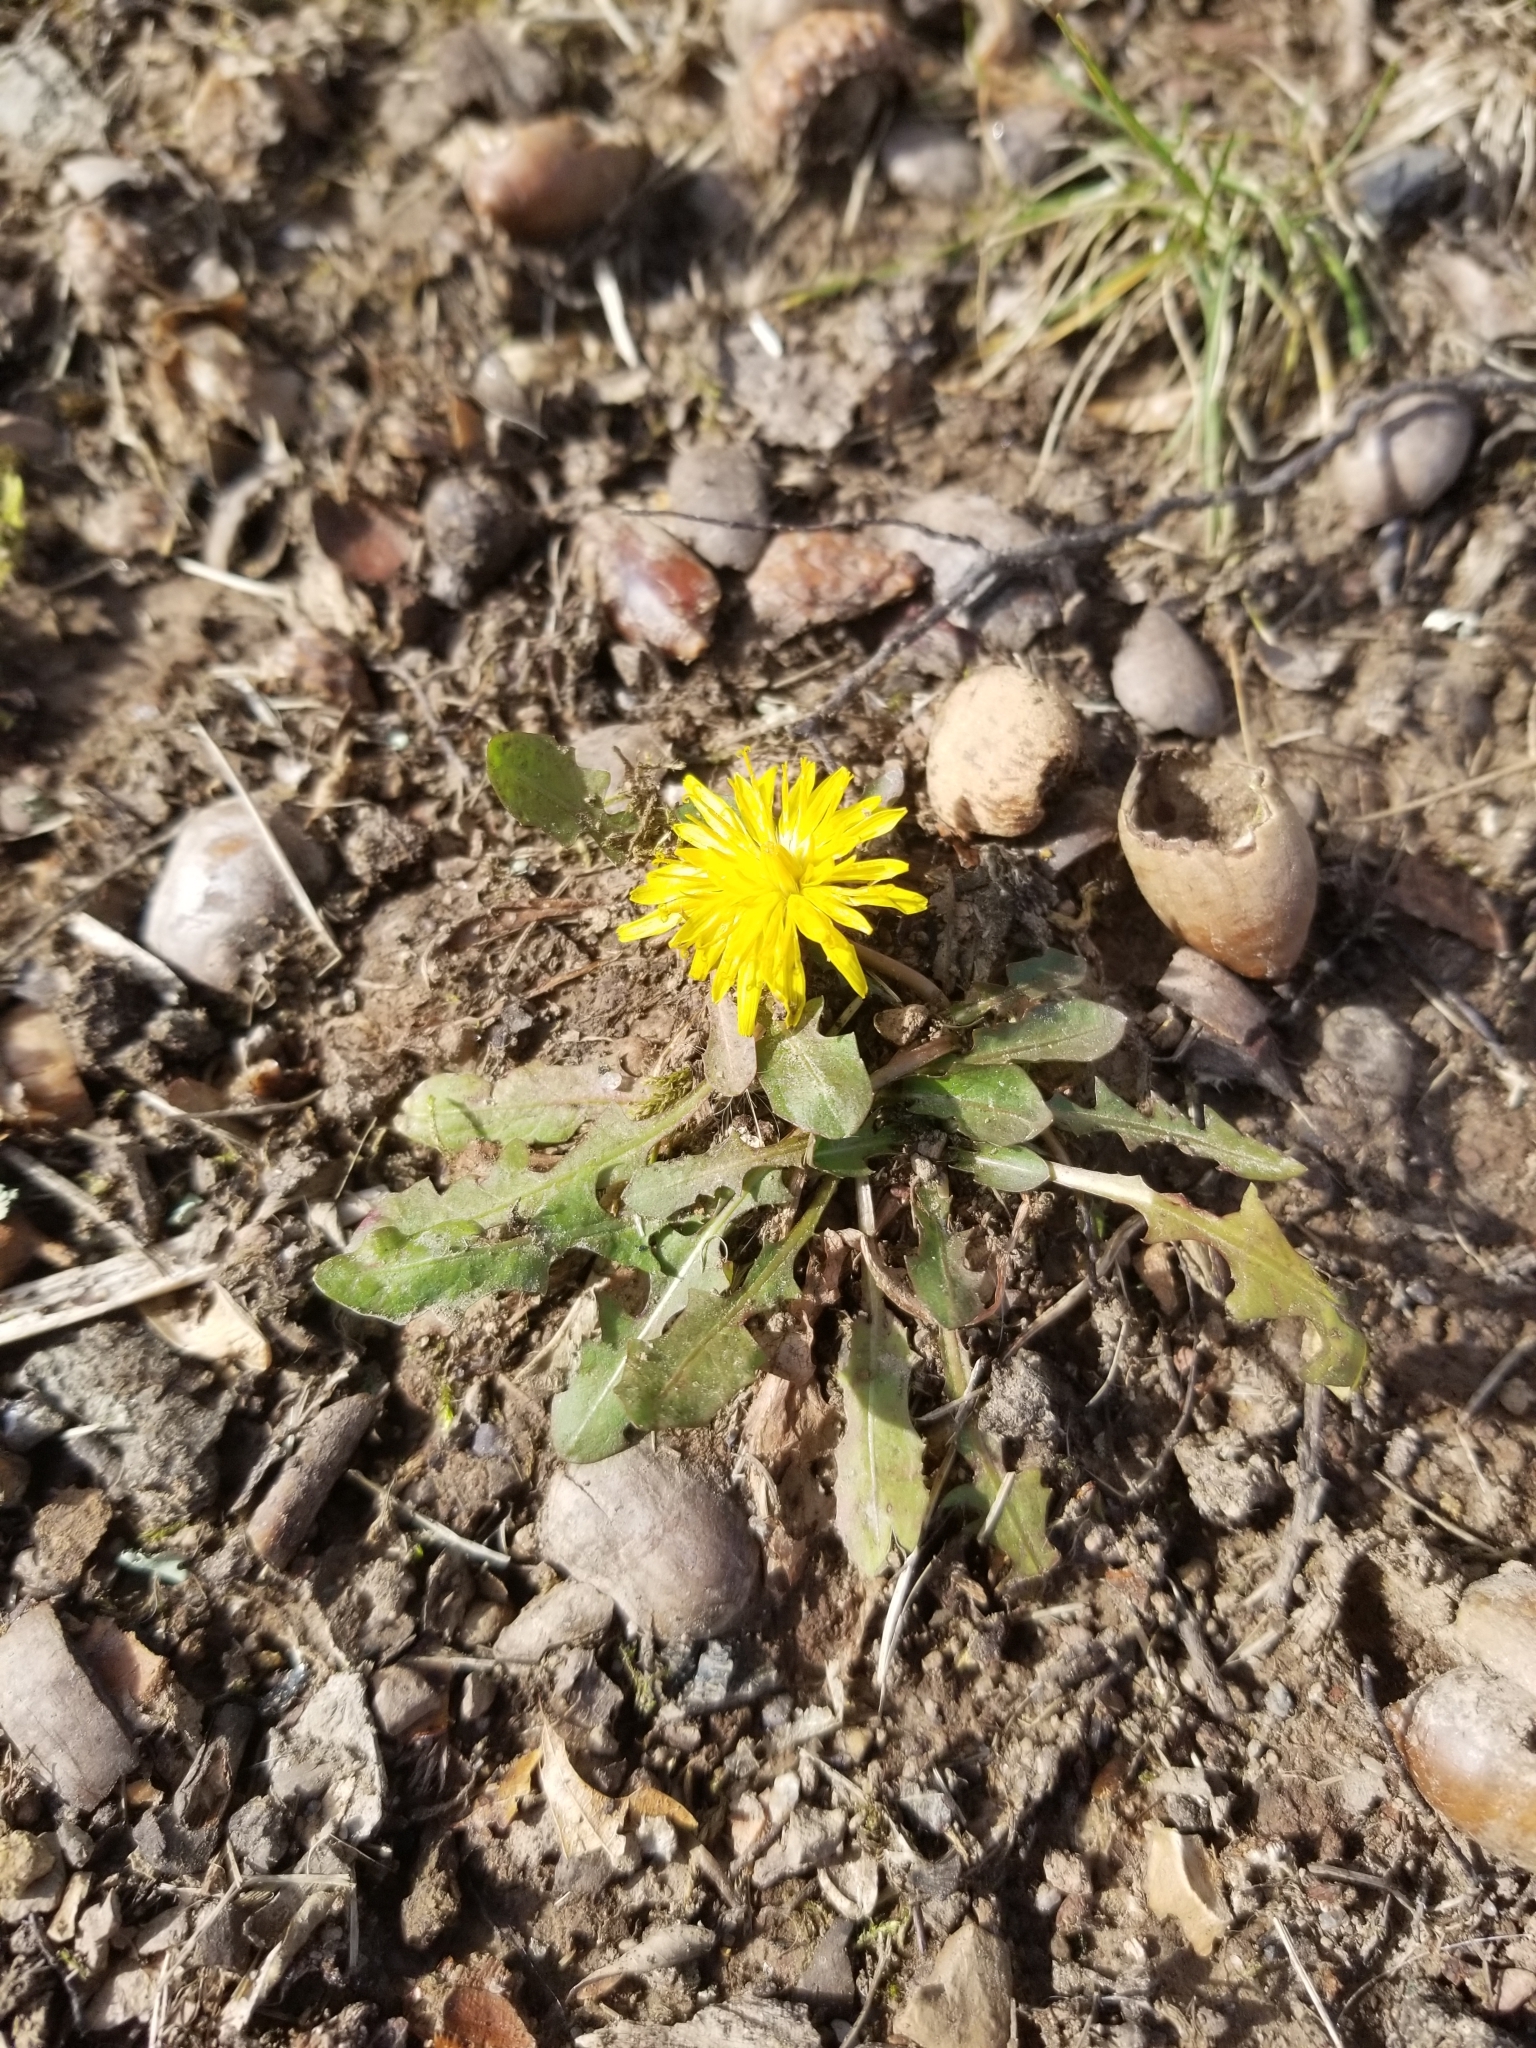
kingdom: Plantae
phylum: Tracheophyta
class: Magnoliopsida
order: Asterales
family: Asteraceae
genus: Taraxacum
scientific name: Taraxacum officinale
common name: Common dandelion
